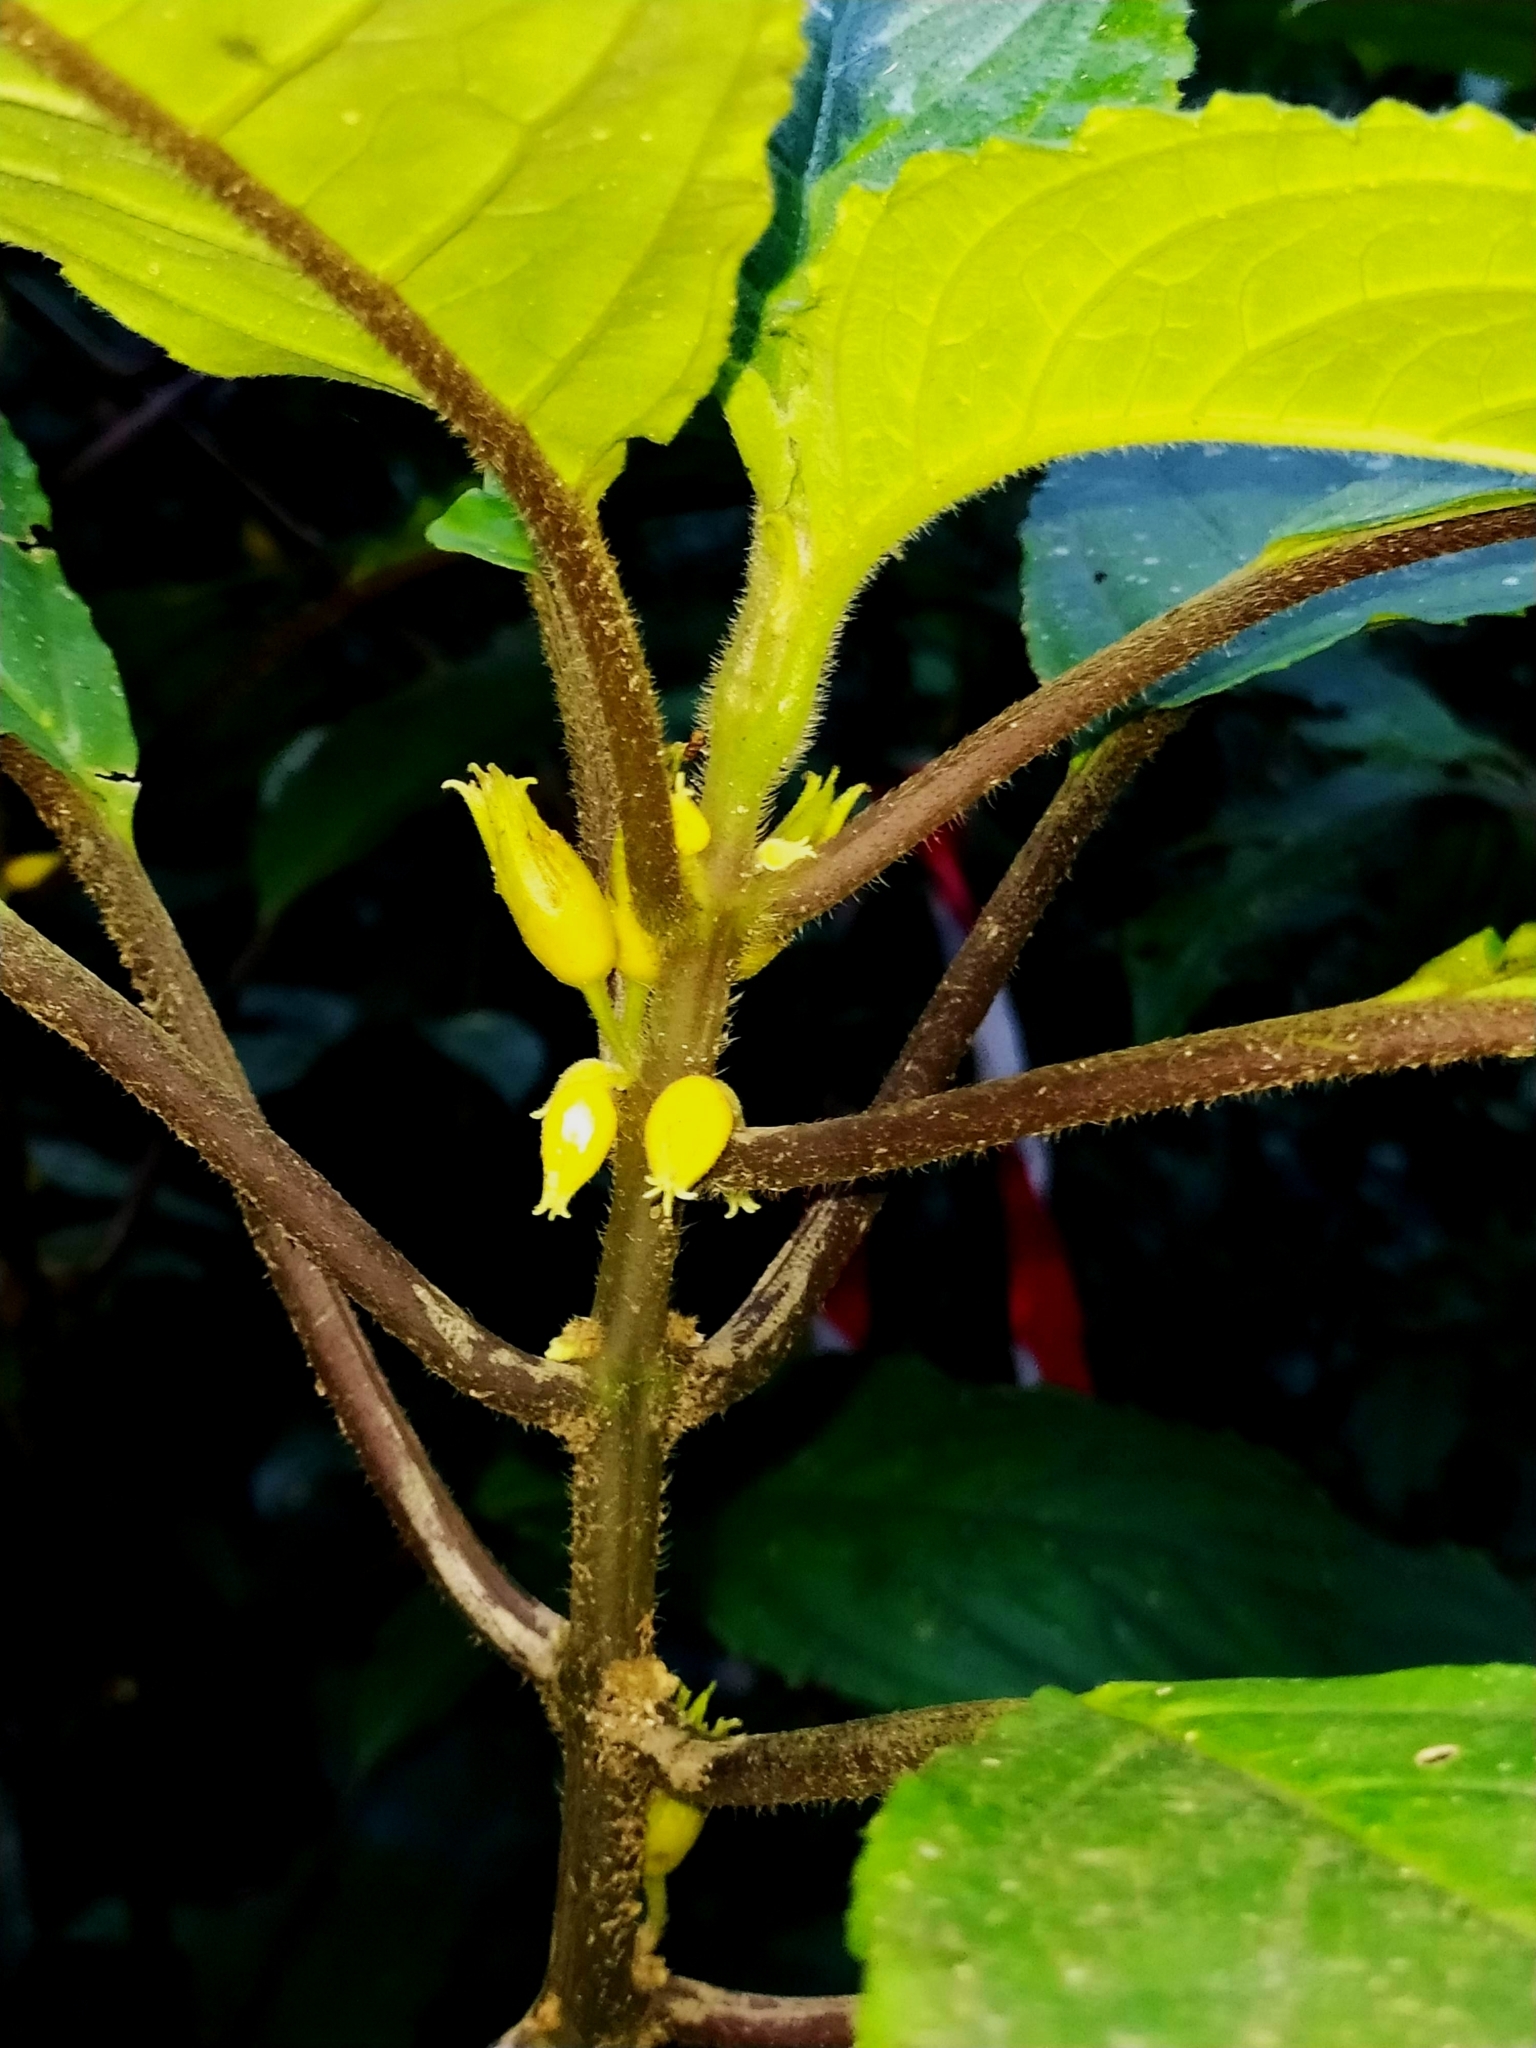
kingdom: Plantae
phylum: Tracheophyta
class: Magnoliopsida
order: Lamiales
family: Gesneriaceae
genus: Besleria
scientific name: Besleria insolita
